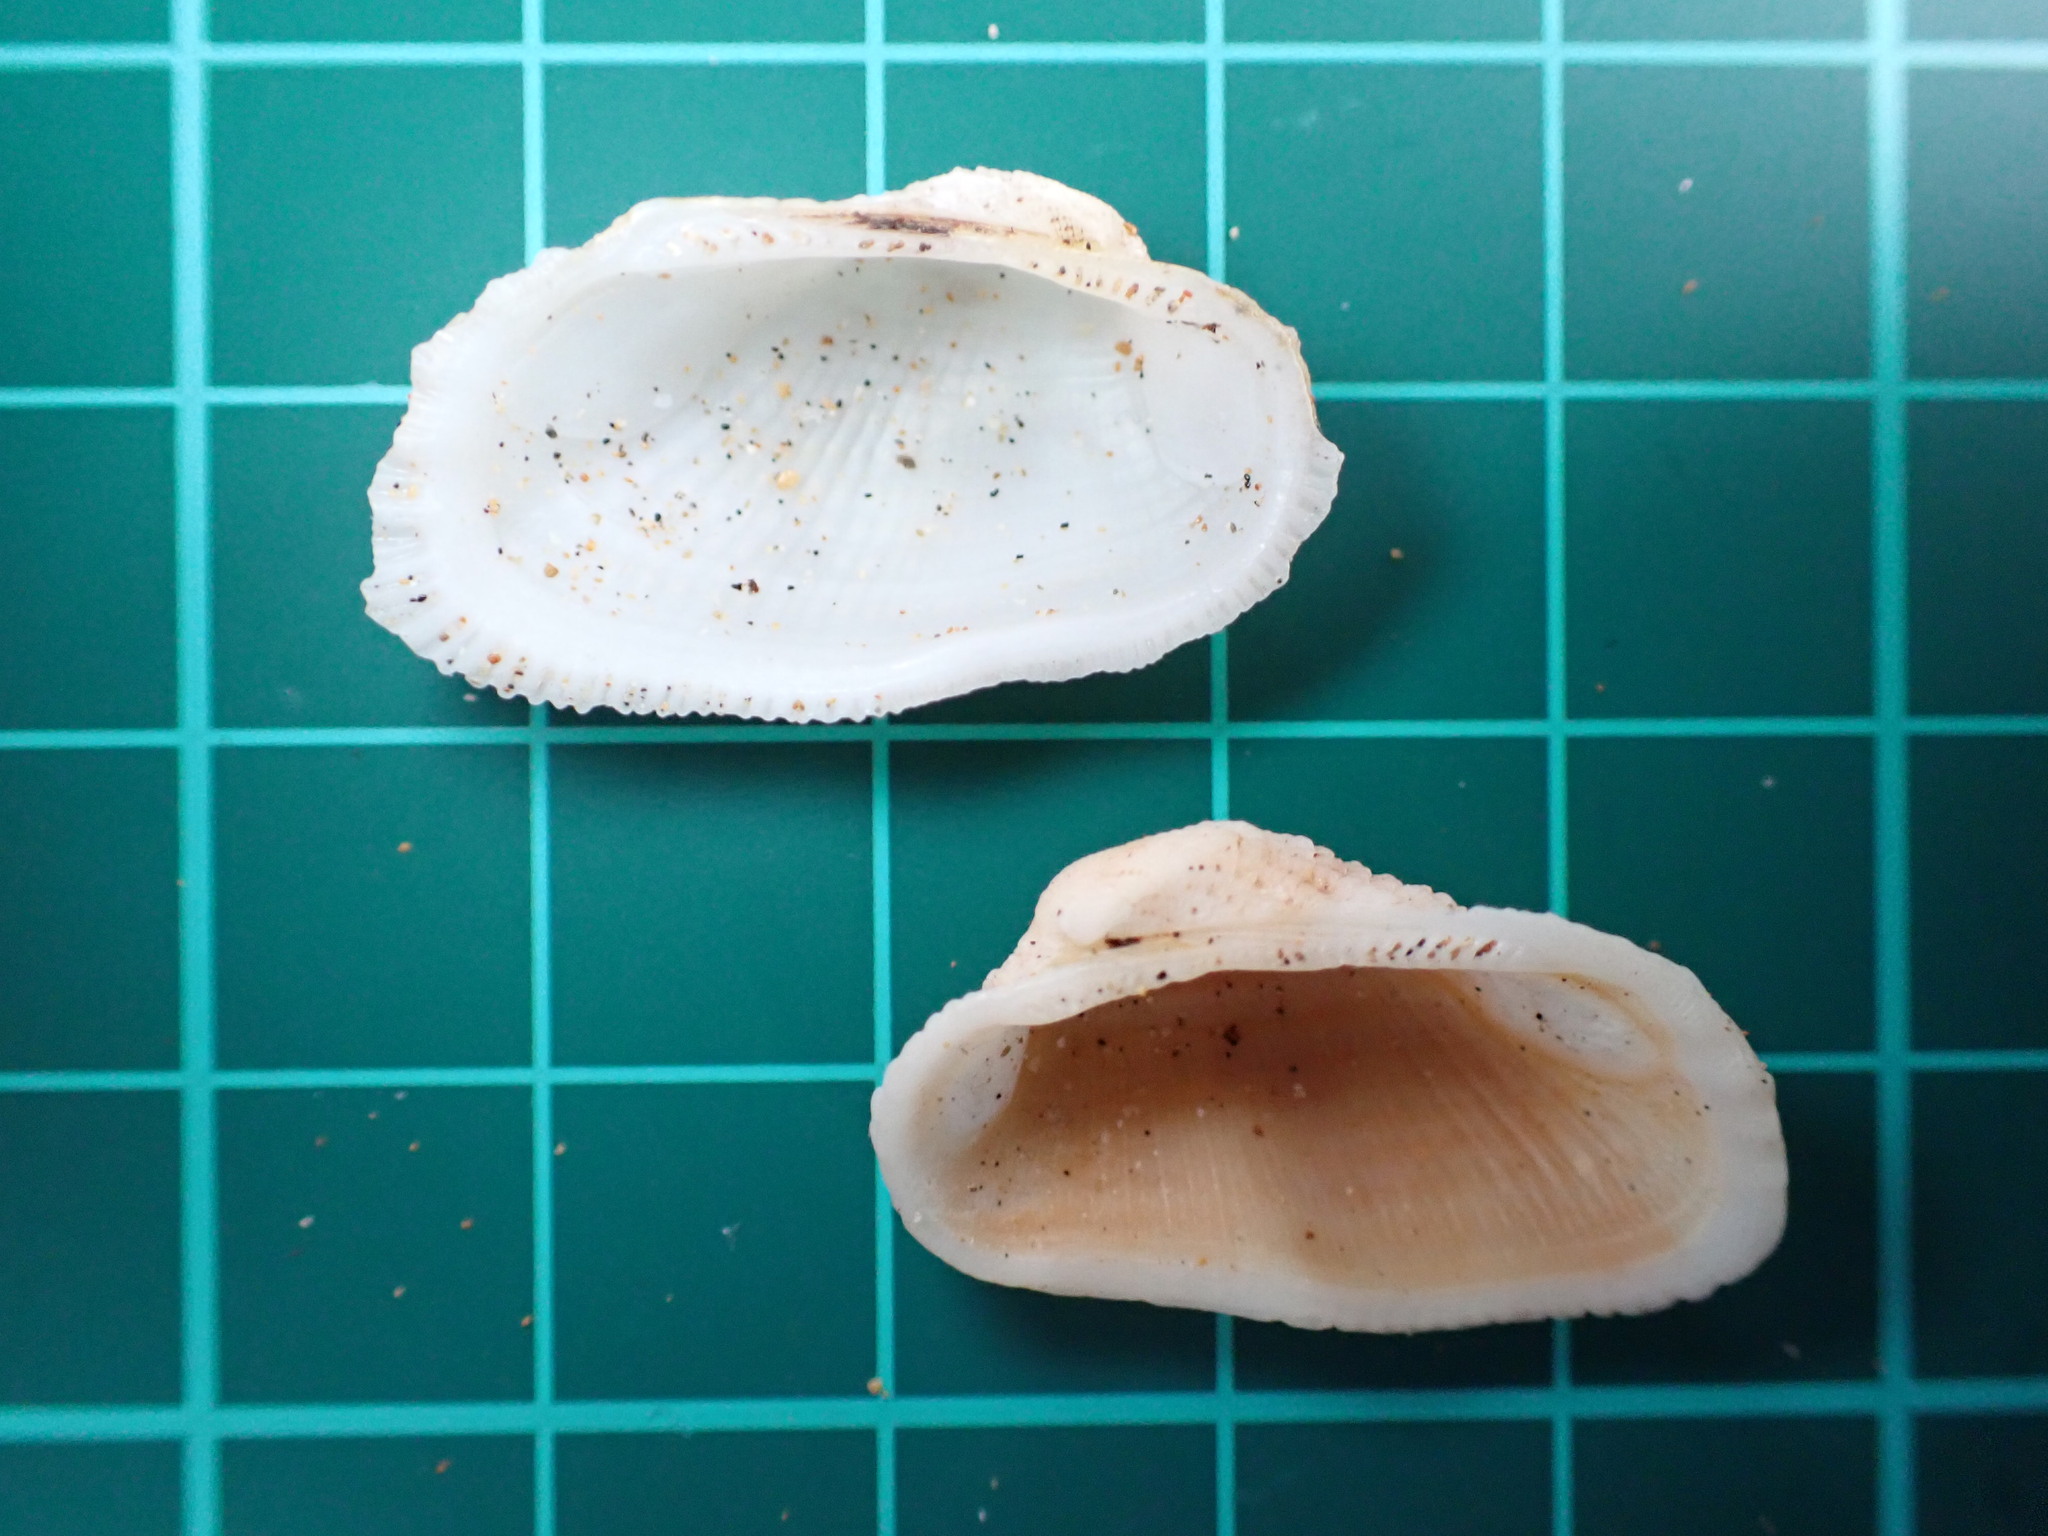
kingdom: Animalia
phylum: Mollusca
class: Bivalvia
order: Arcida
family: Arcidae
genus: Acar
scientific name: Acar plicata
